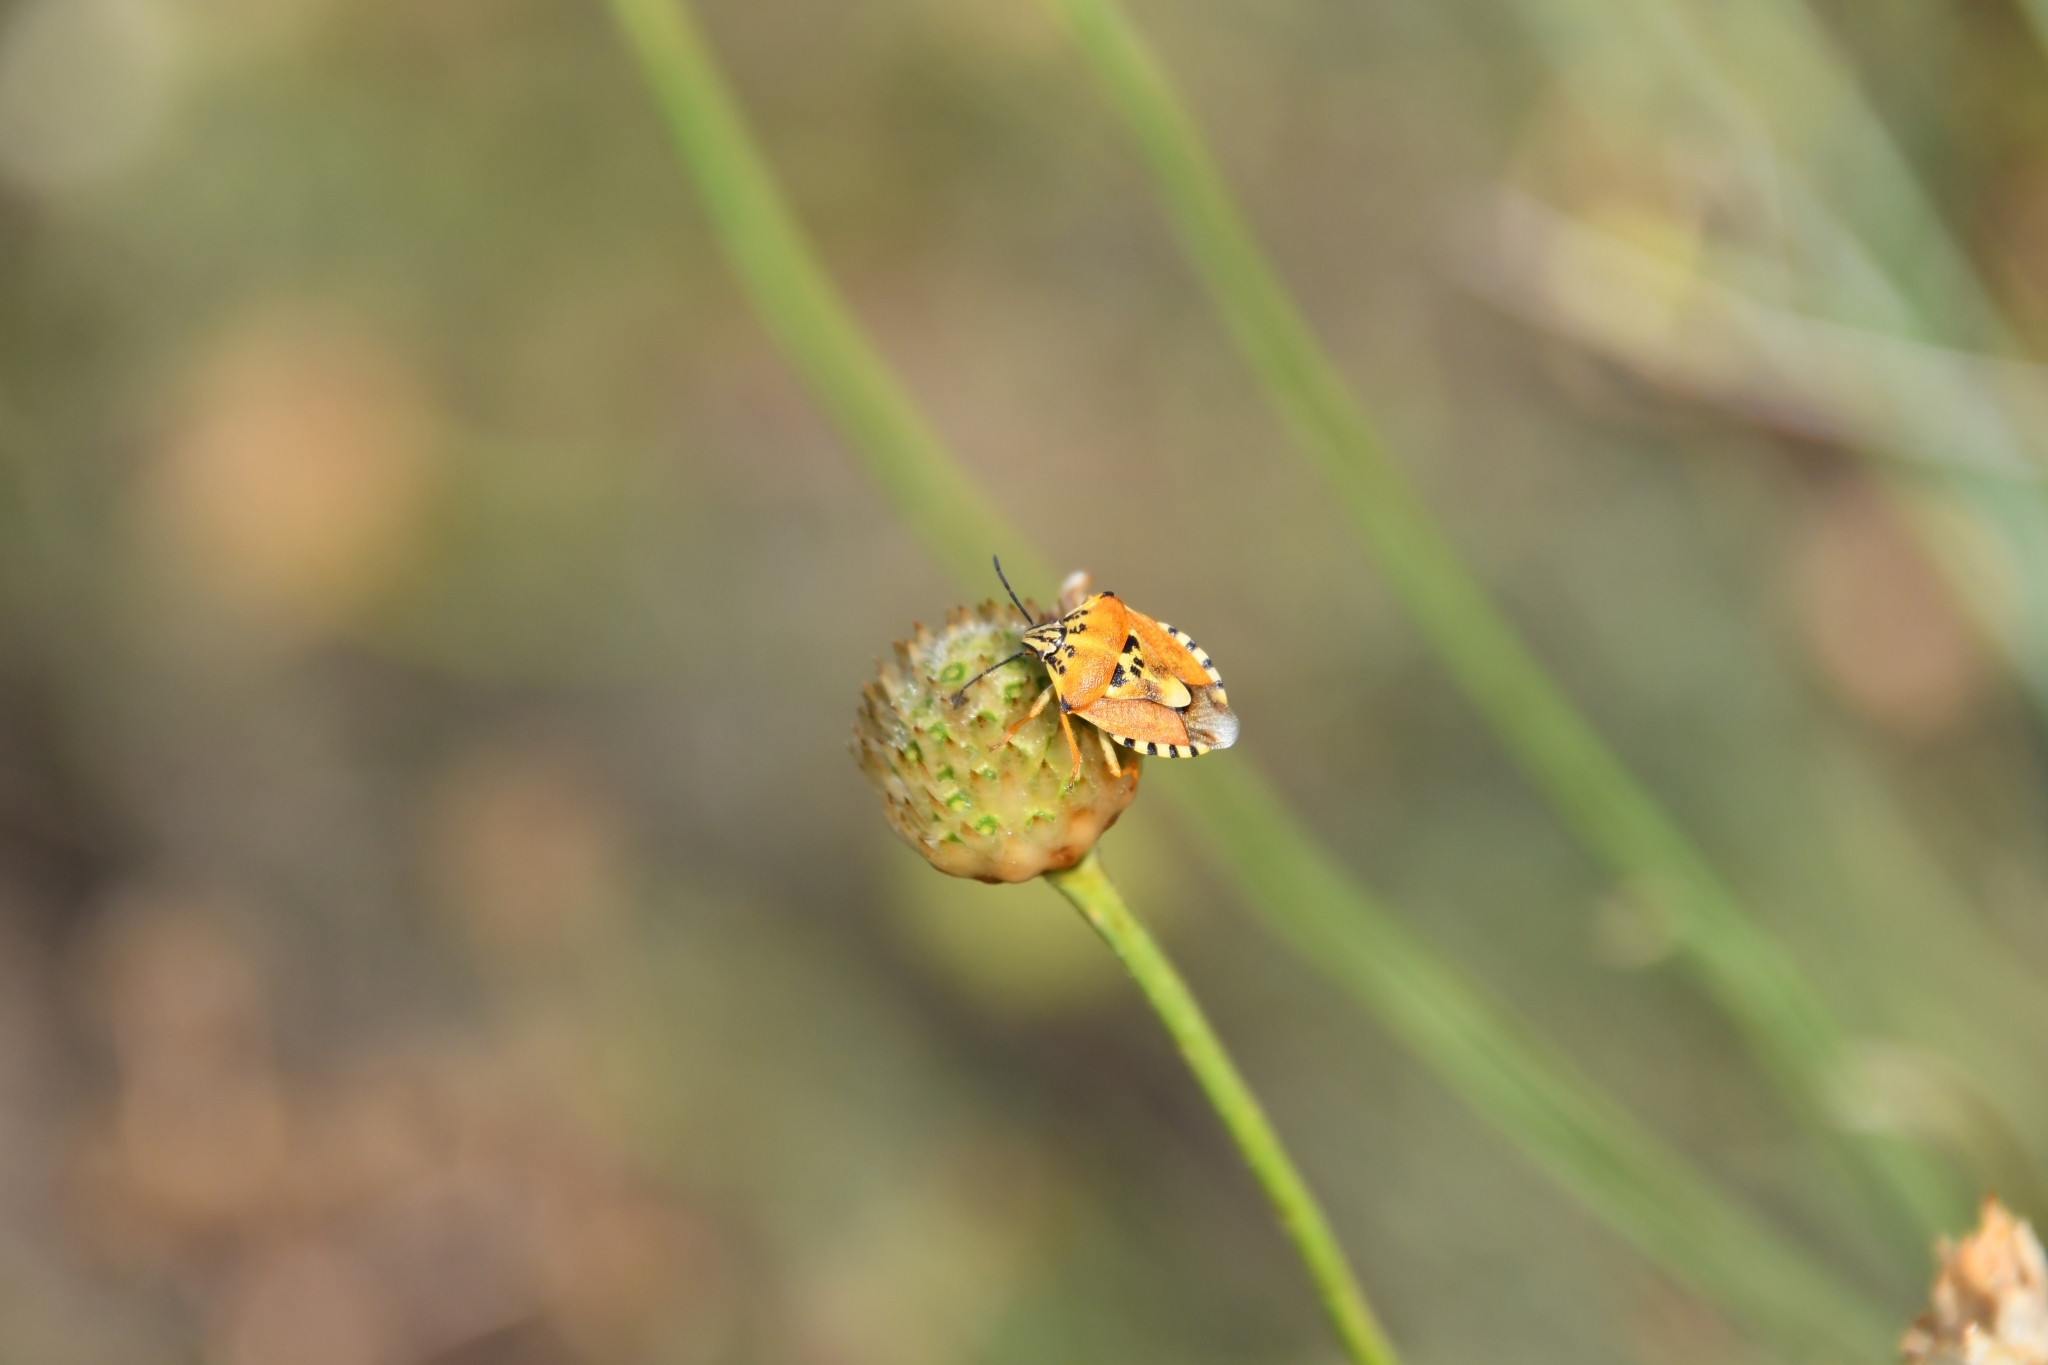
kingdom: Animalia
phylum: Arthropoda
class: Insecta
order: Hemiptera
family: Pentatomidae
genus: Carpocoris
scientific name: Carpocoris purpureipennis
